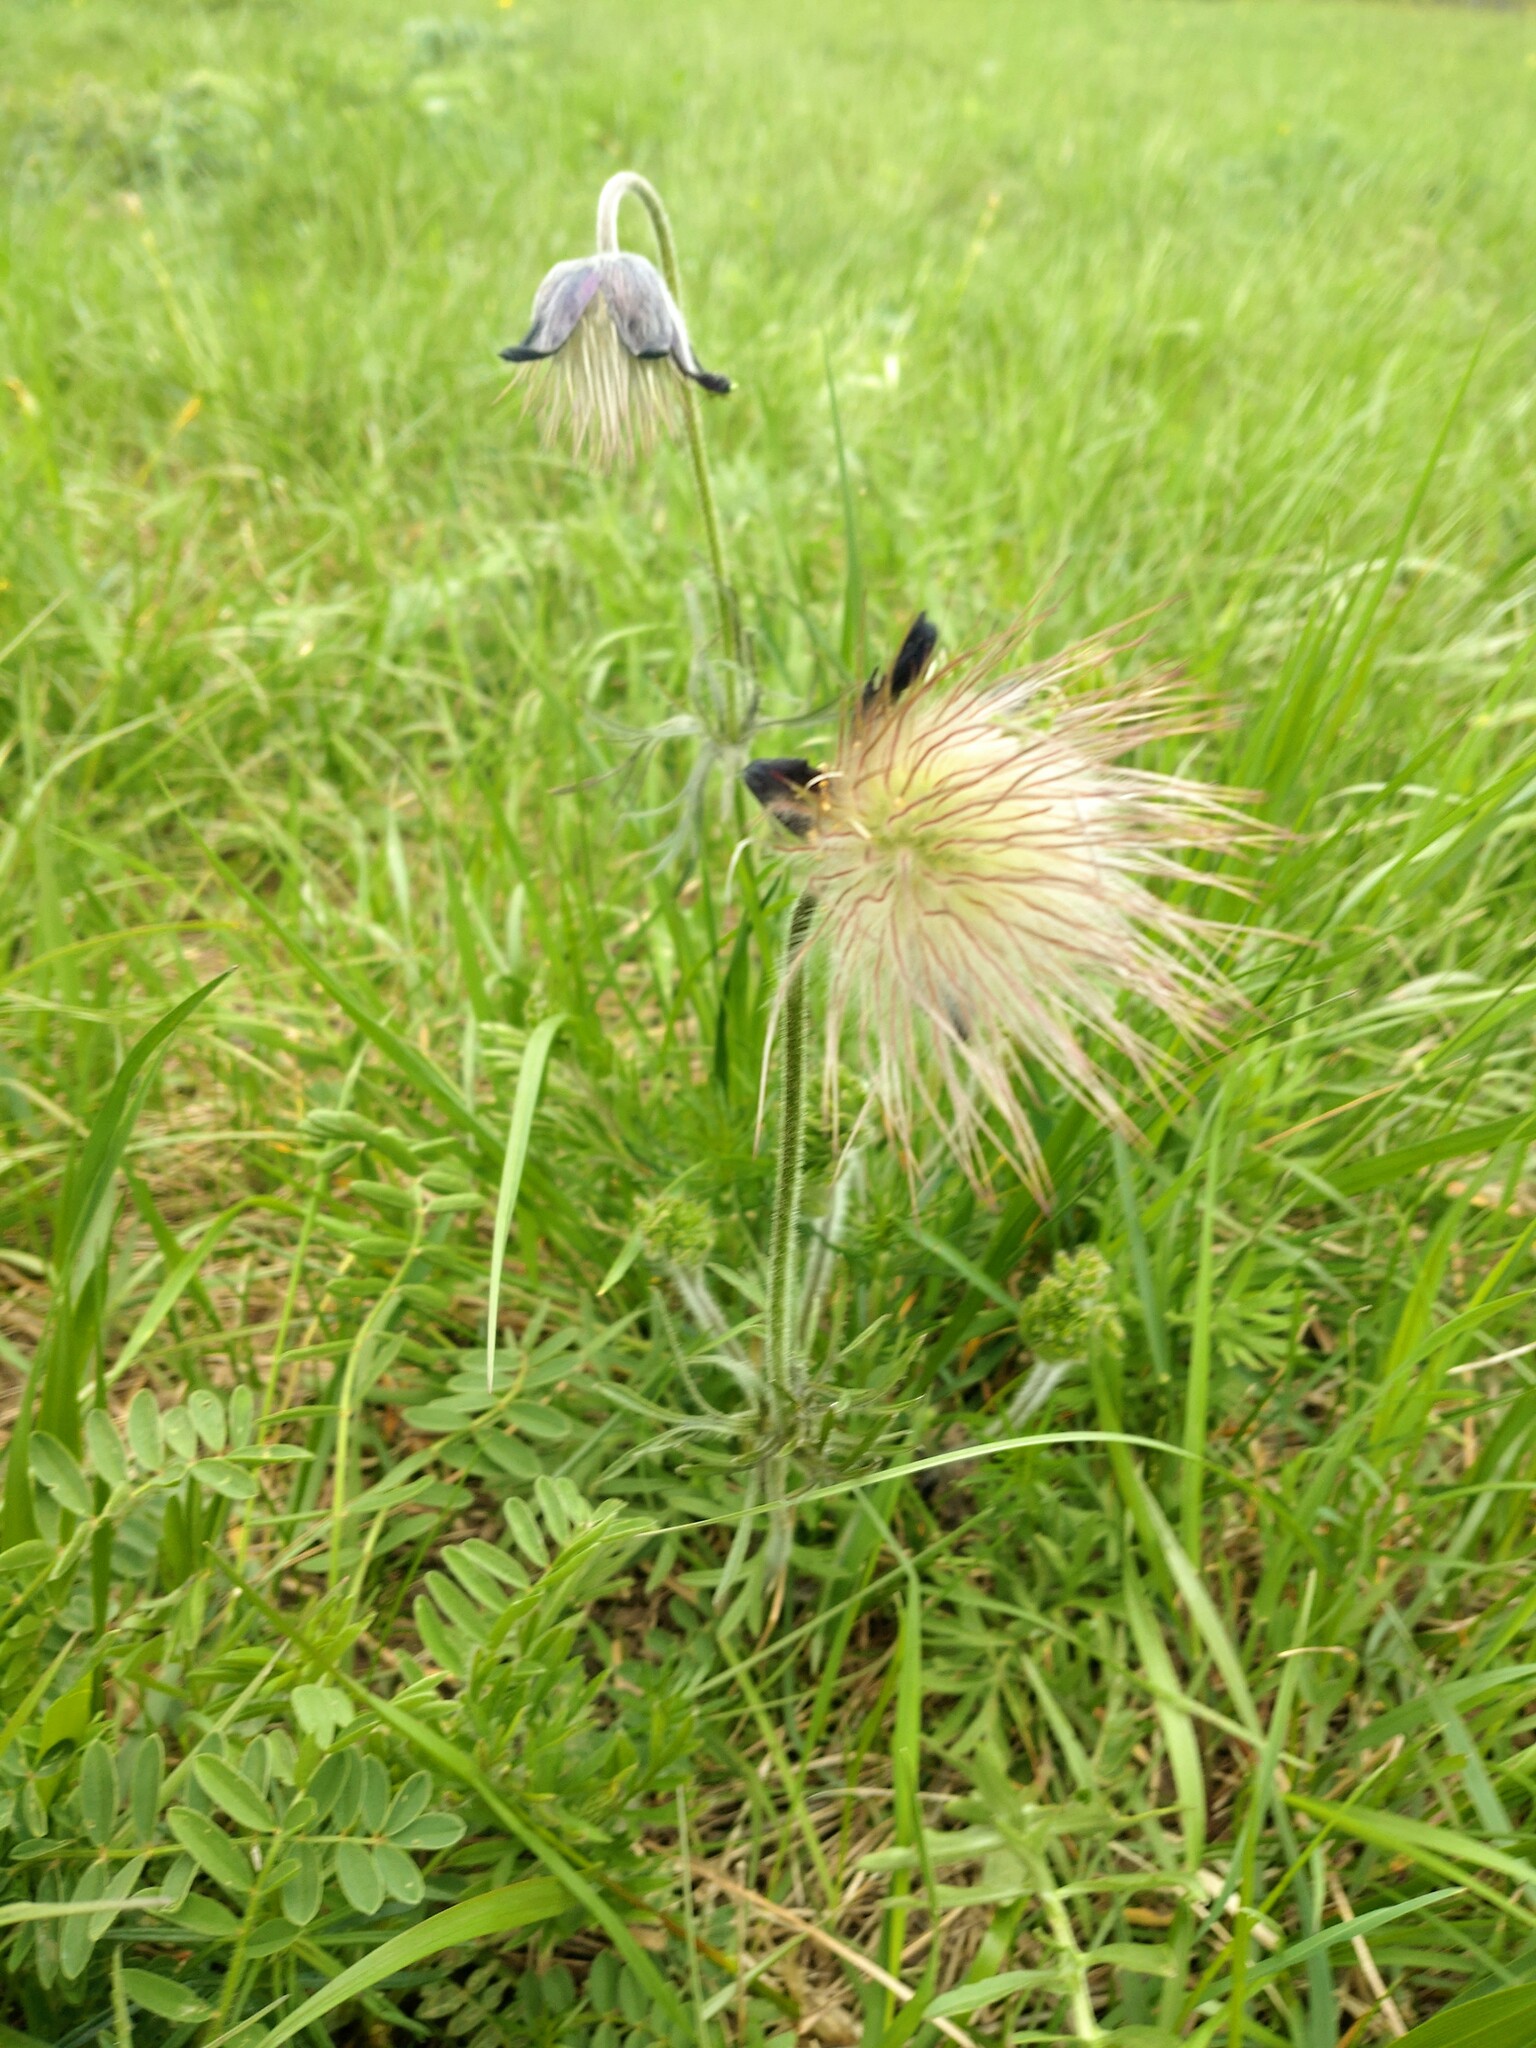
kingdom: Plantae
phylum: Tracheophyta
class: Magnoliopsida
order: Ranunculales
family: Ranunculaceae
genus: Pulsatilla
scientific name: Pulsatilla pratensis
